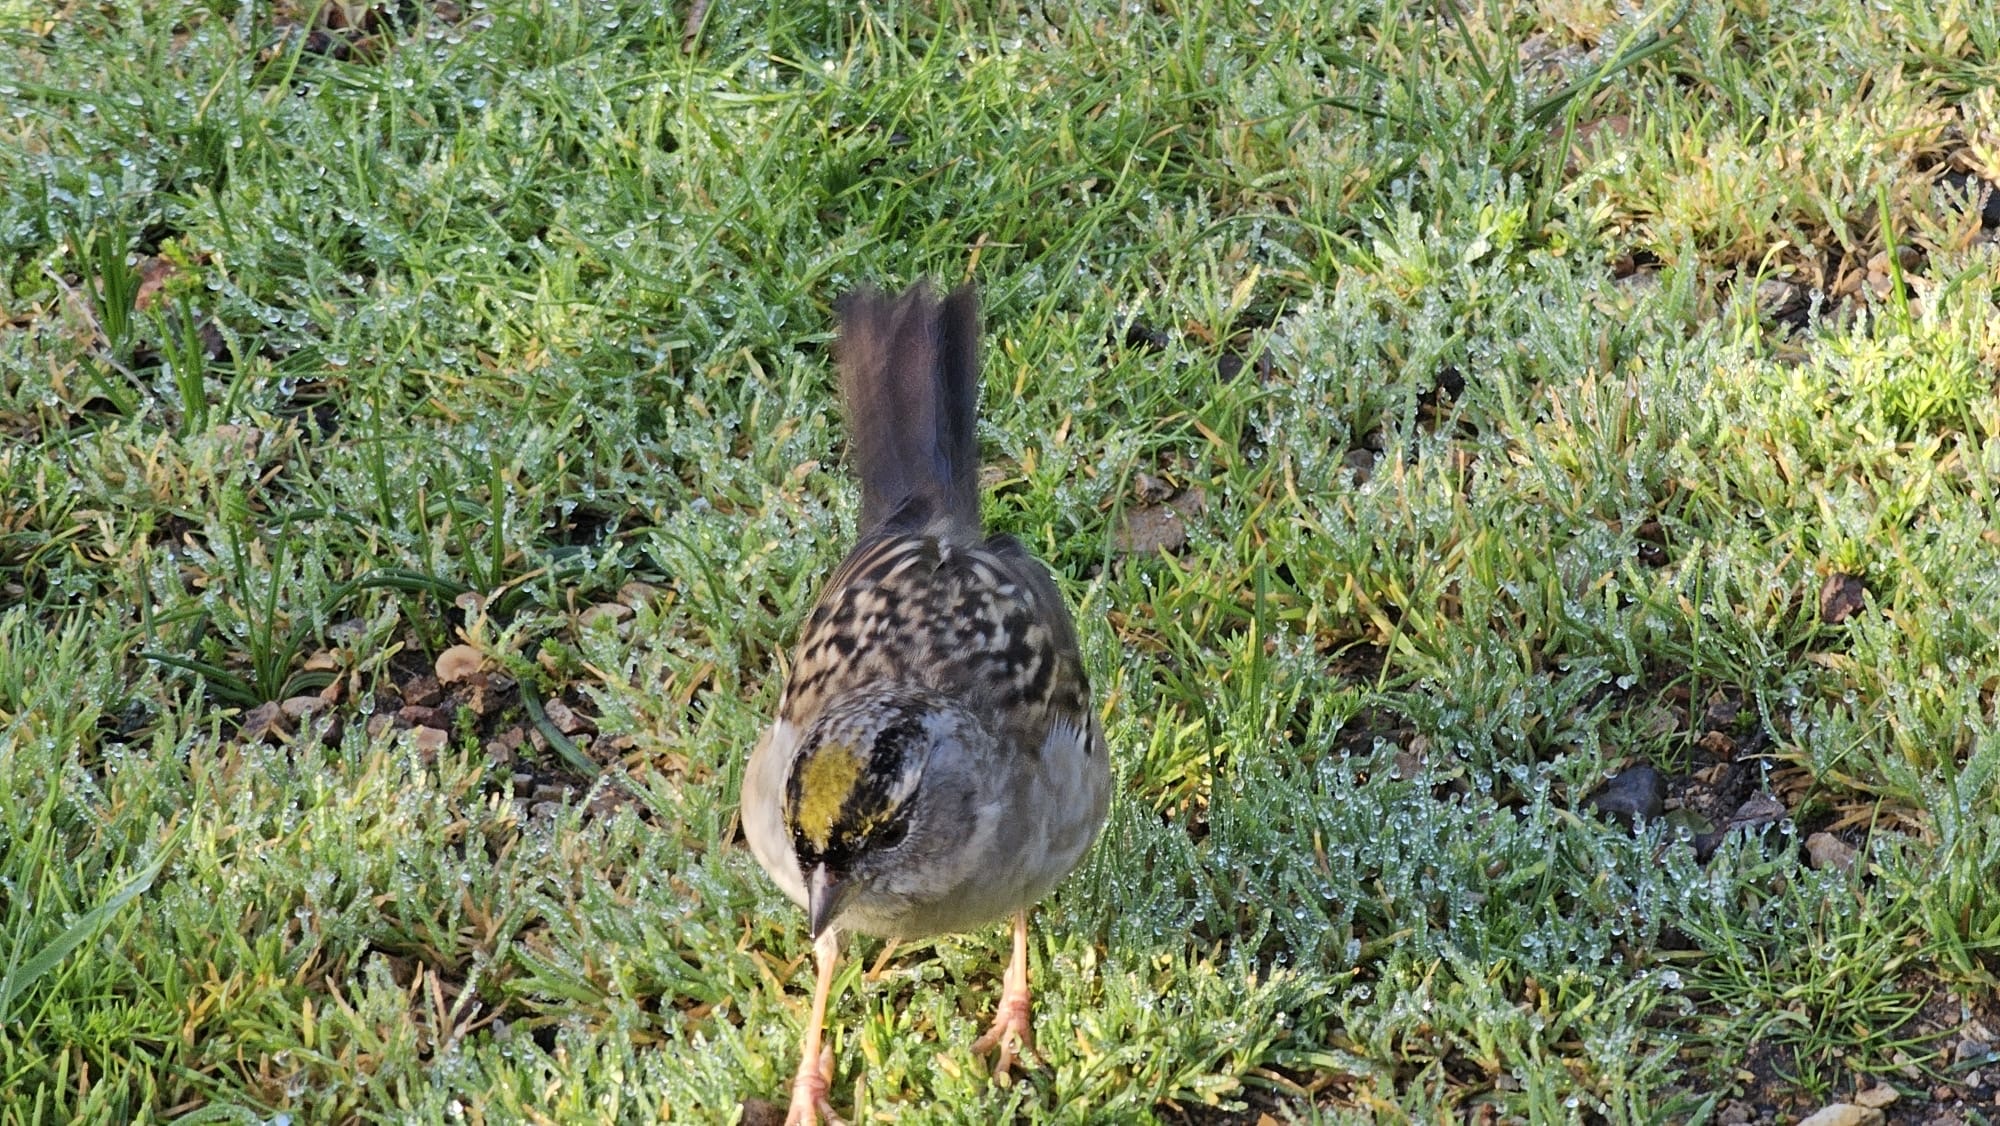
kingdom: Animalia
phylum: Chordata
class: Aves
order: Passeriformes
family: Passerellidae
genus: Zonotrichia
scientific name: Zonotrichia atricapilla
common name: Golden-crowned sparrow
